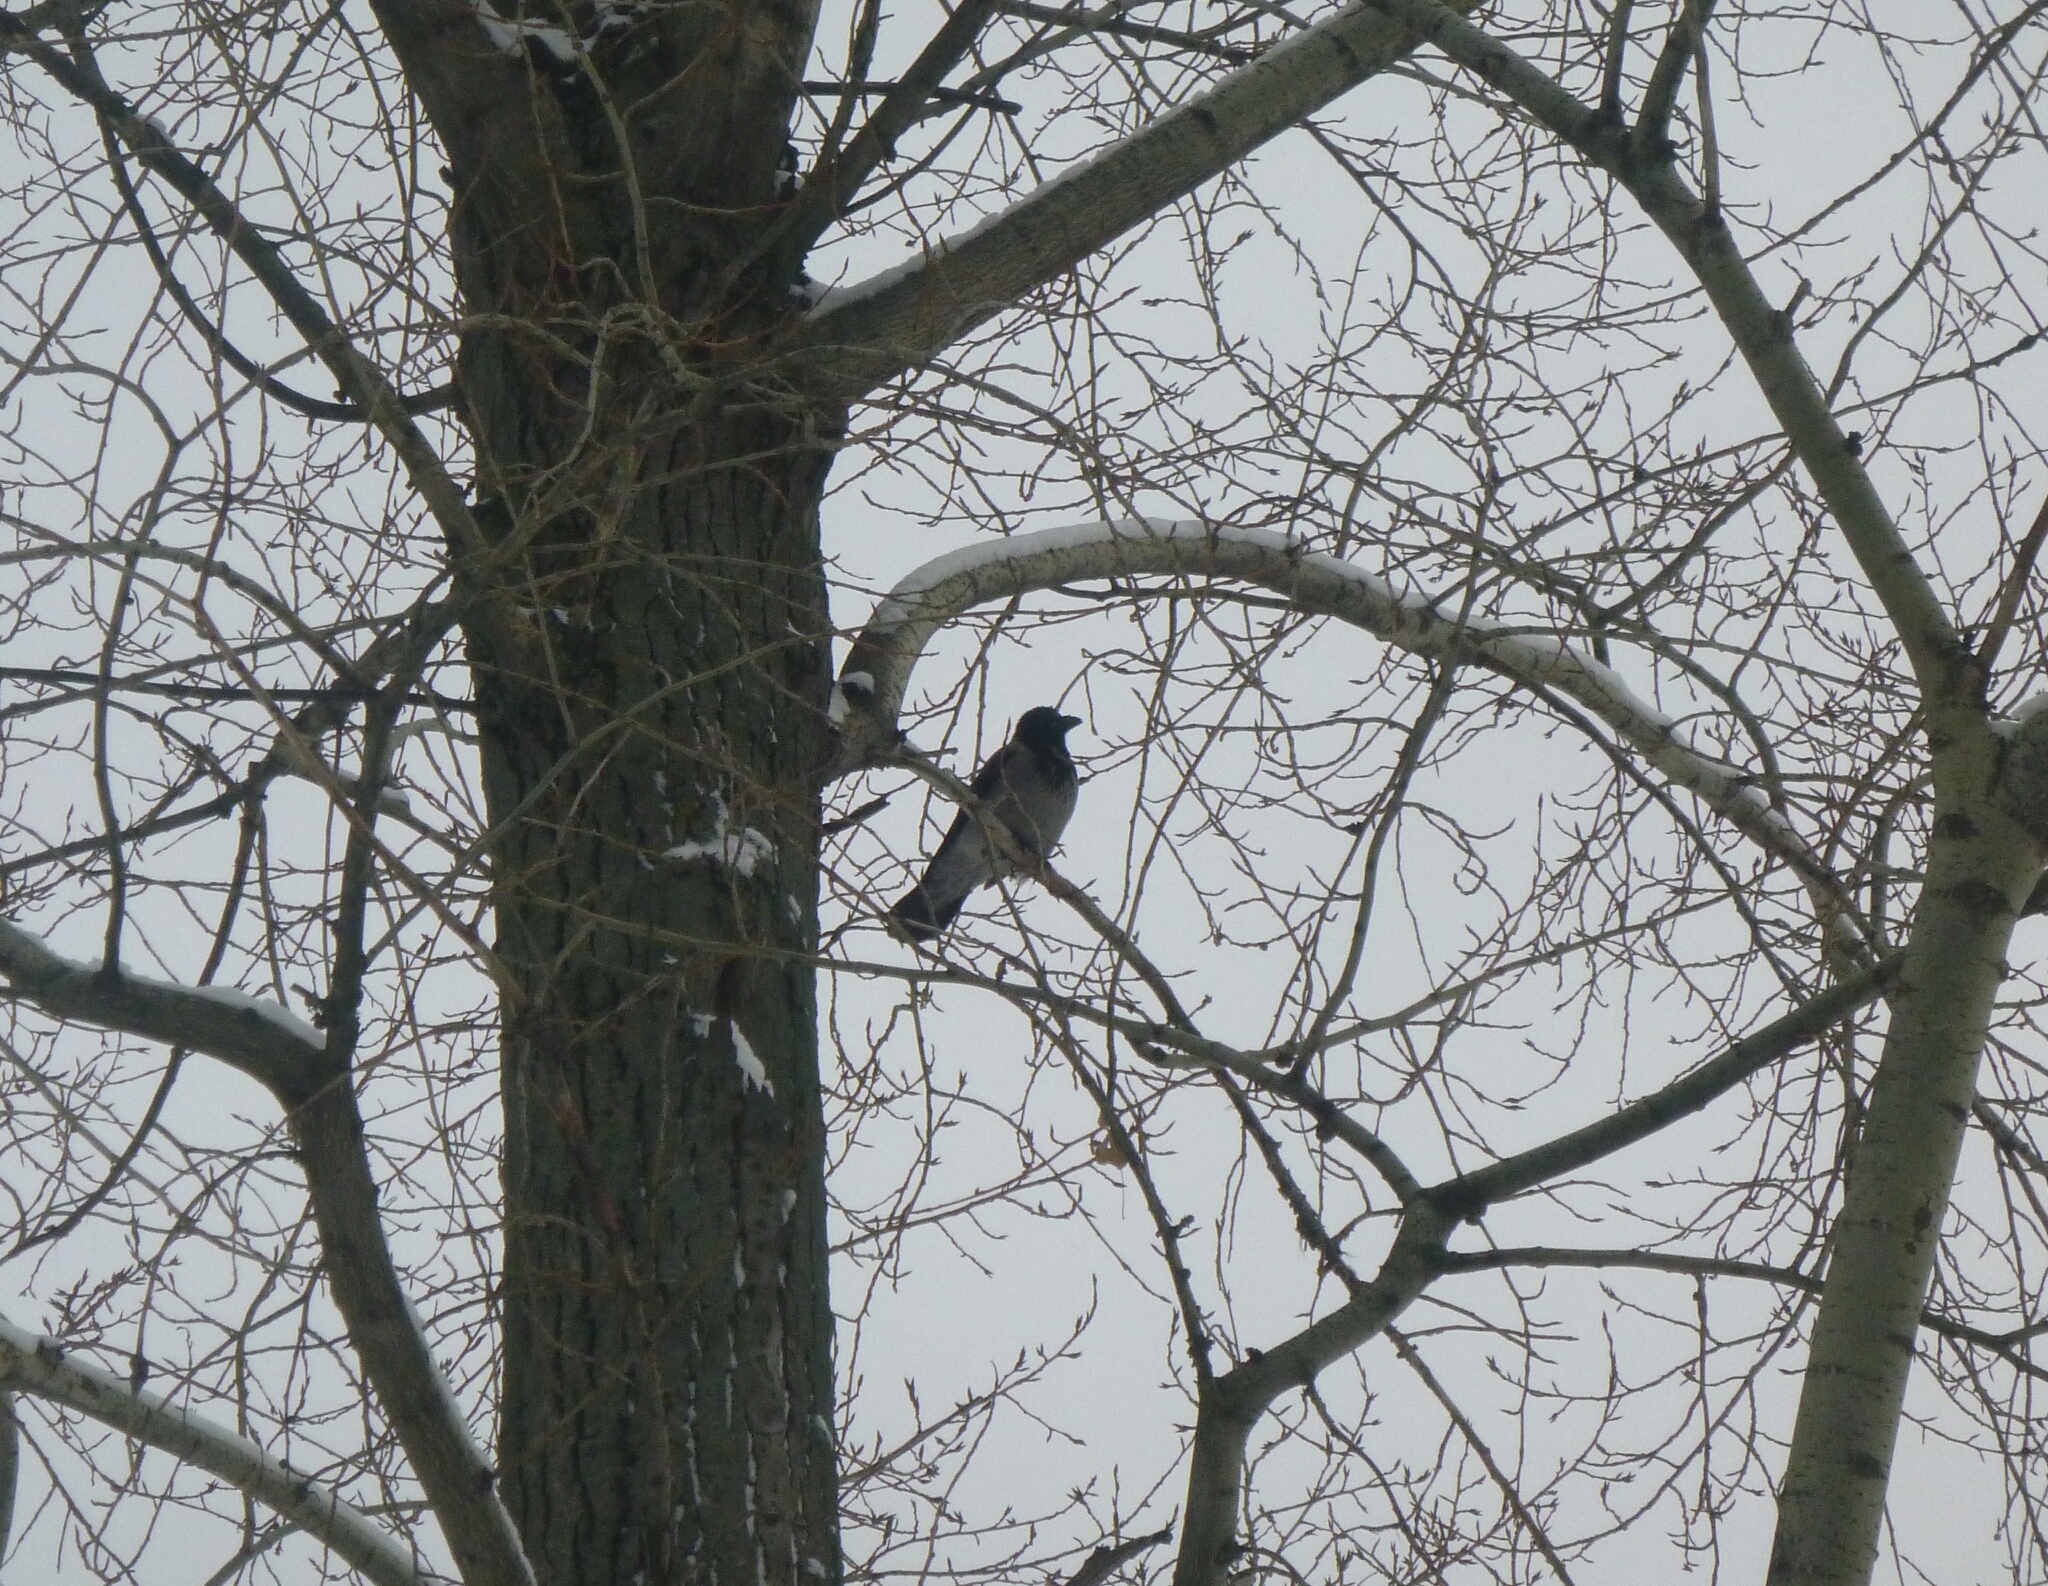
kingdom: Animalia
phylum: Chordata
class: Aves
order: Passeriformes
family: Corvidae
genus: Corvus
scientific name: Corvus cornix
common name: Hooded crow
